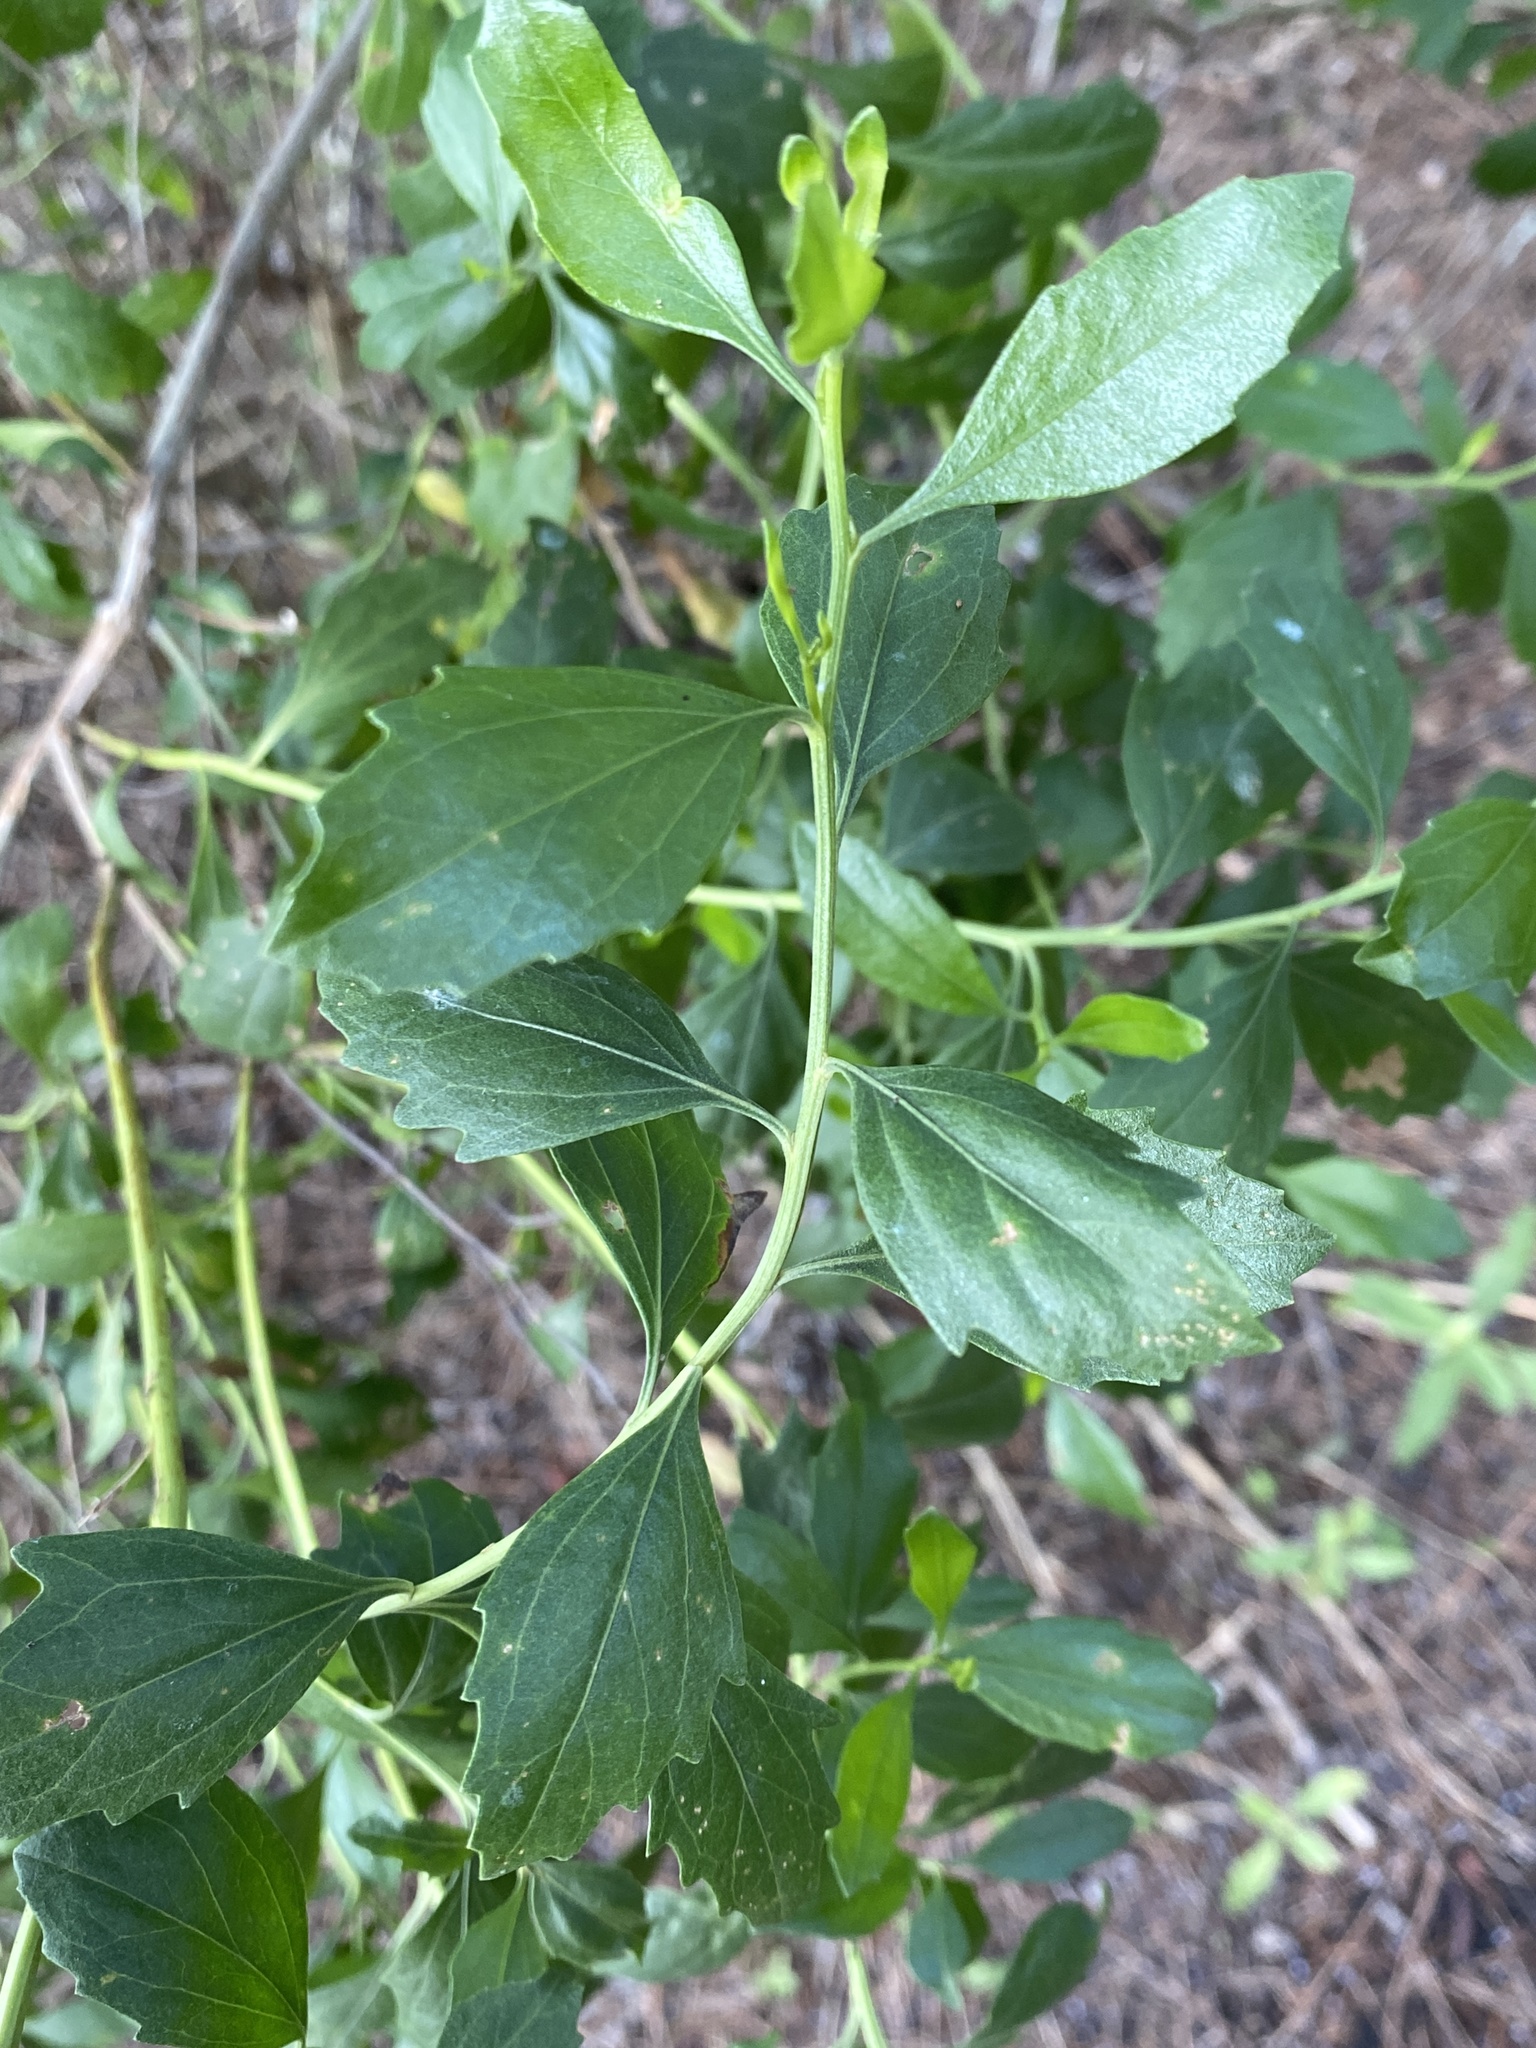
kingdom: Plantae
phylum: Tracheophyta
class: Magnoliopsida
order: Asterales
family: Asteraceae
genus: Baccharis
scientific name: Baccharis halimifolia
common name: Eastern baccharis
